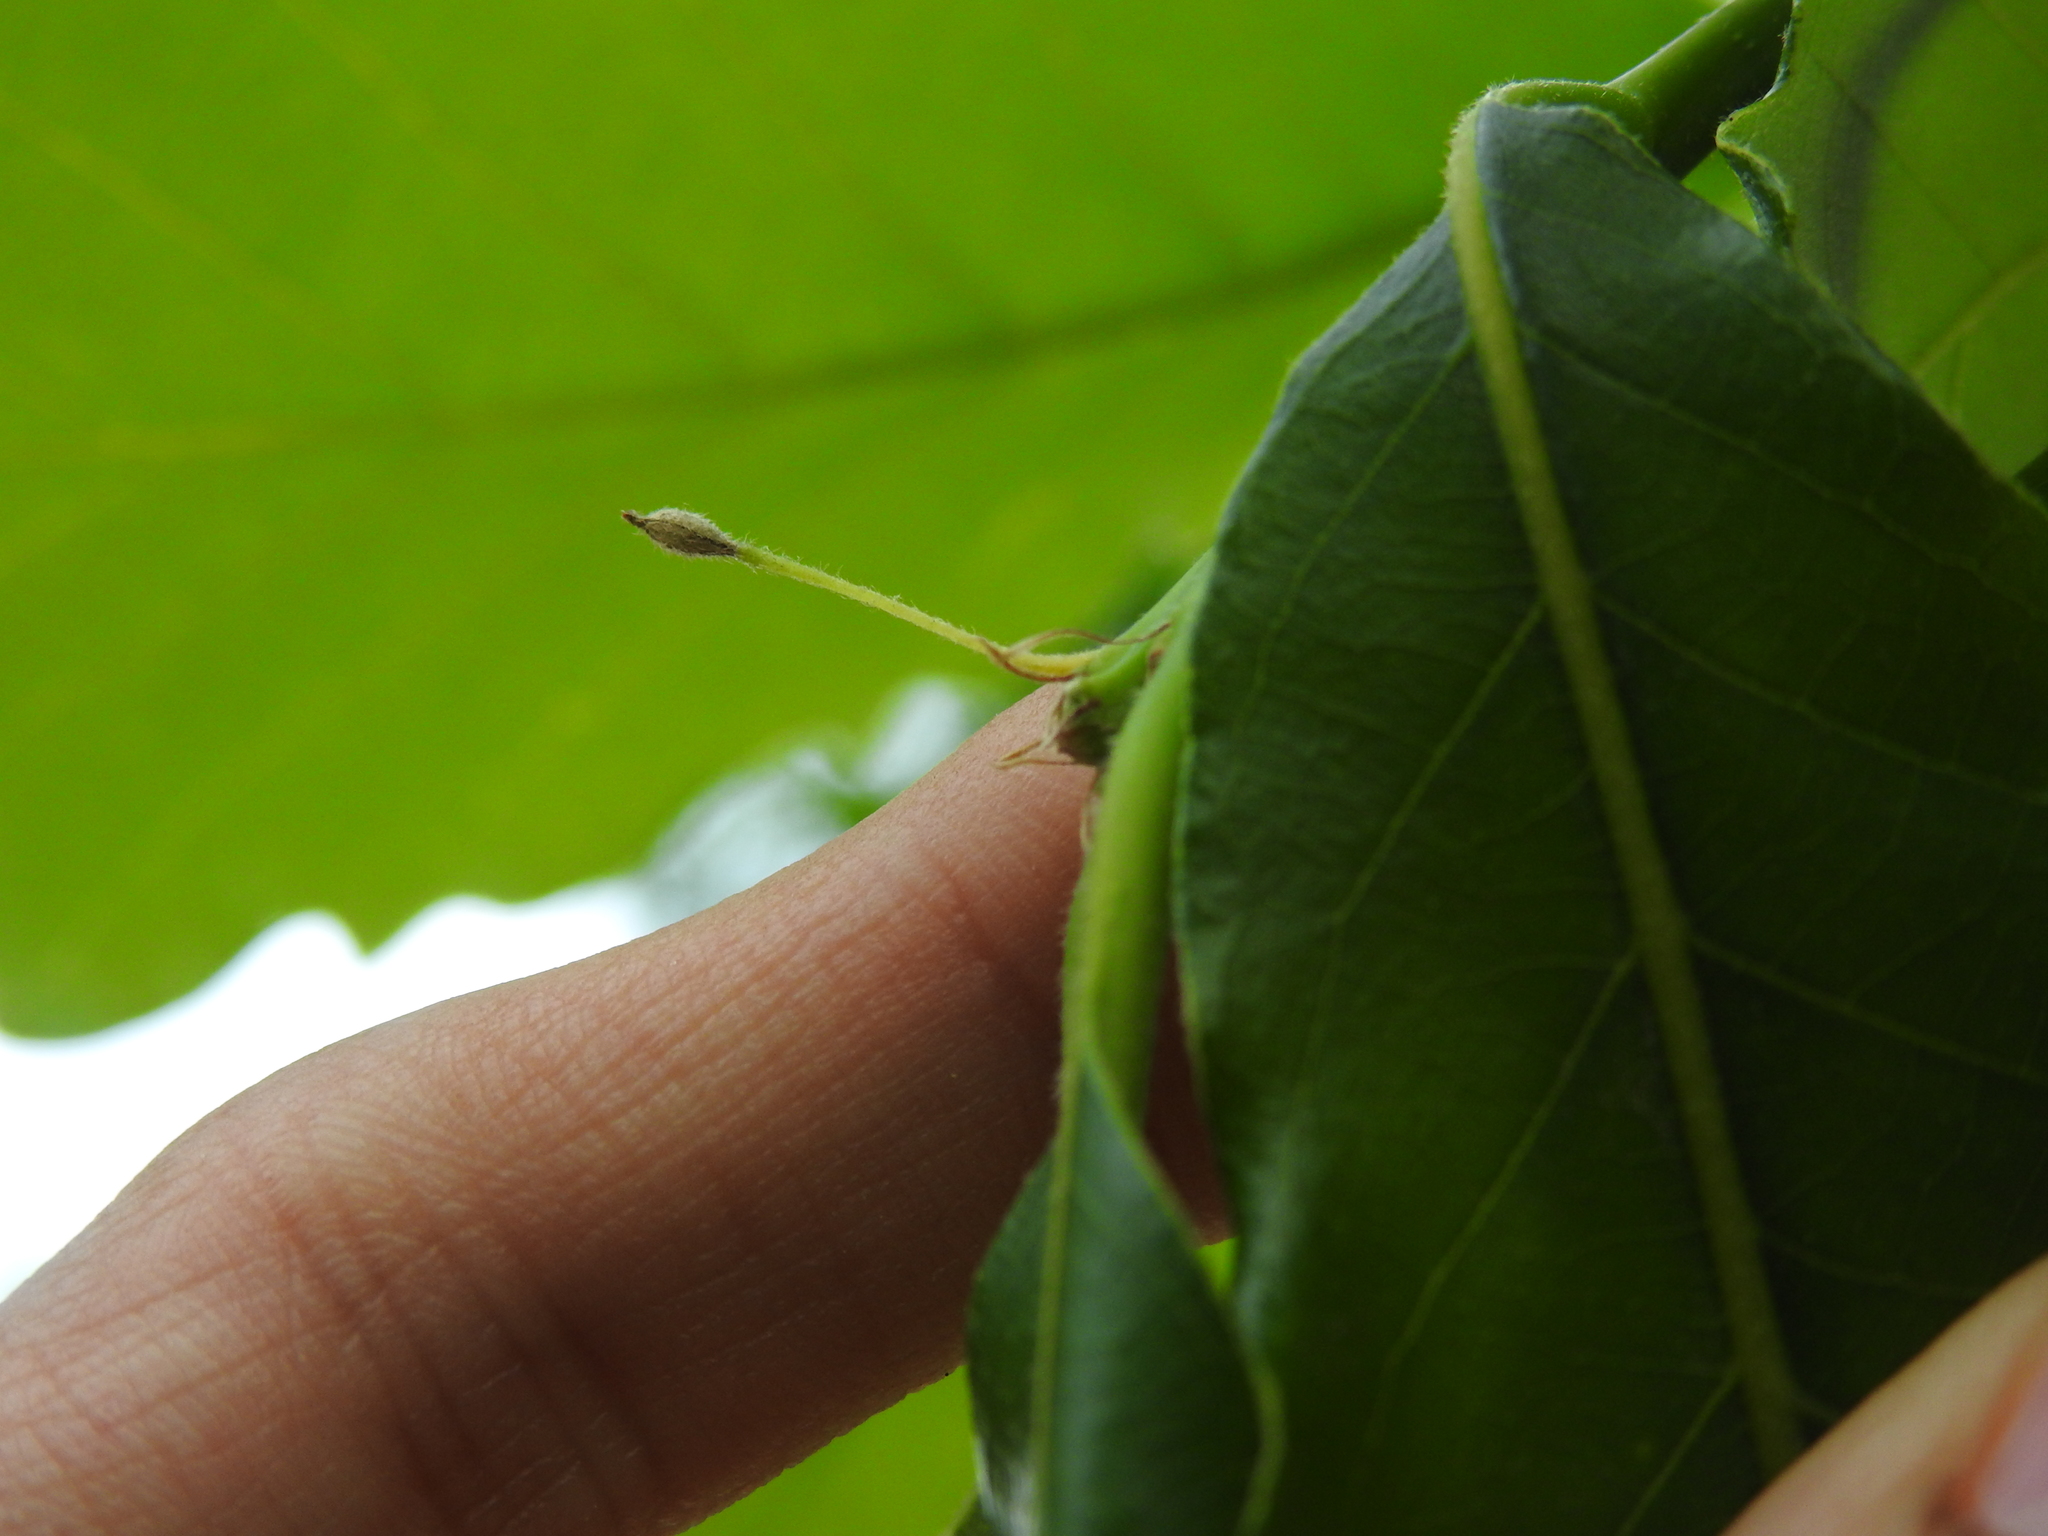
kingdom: Animalia
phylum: Arthropoda
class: Insecta
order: Hymenoptera
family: Cynipidae
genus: Andricus
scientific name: Andricus
